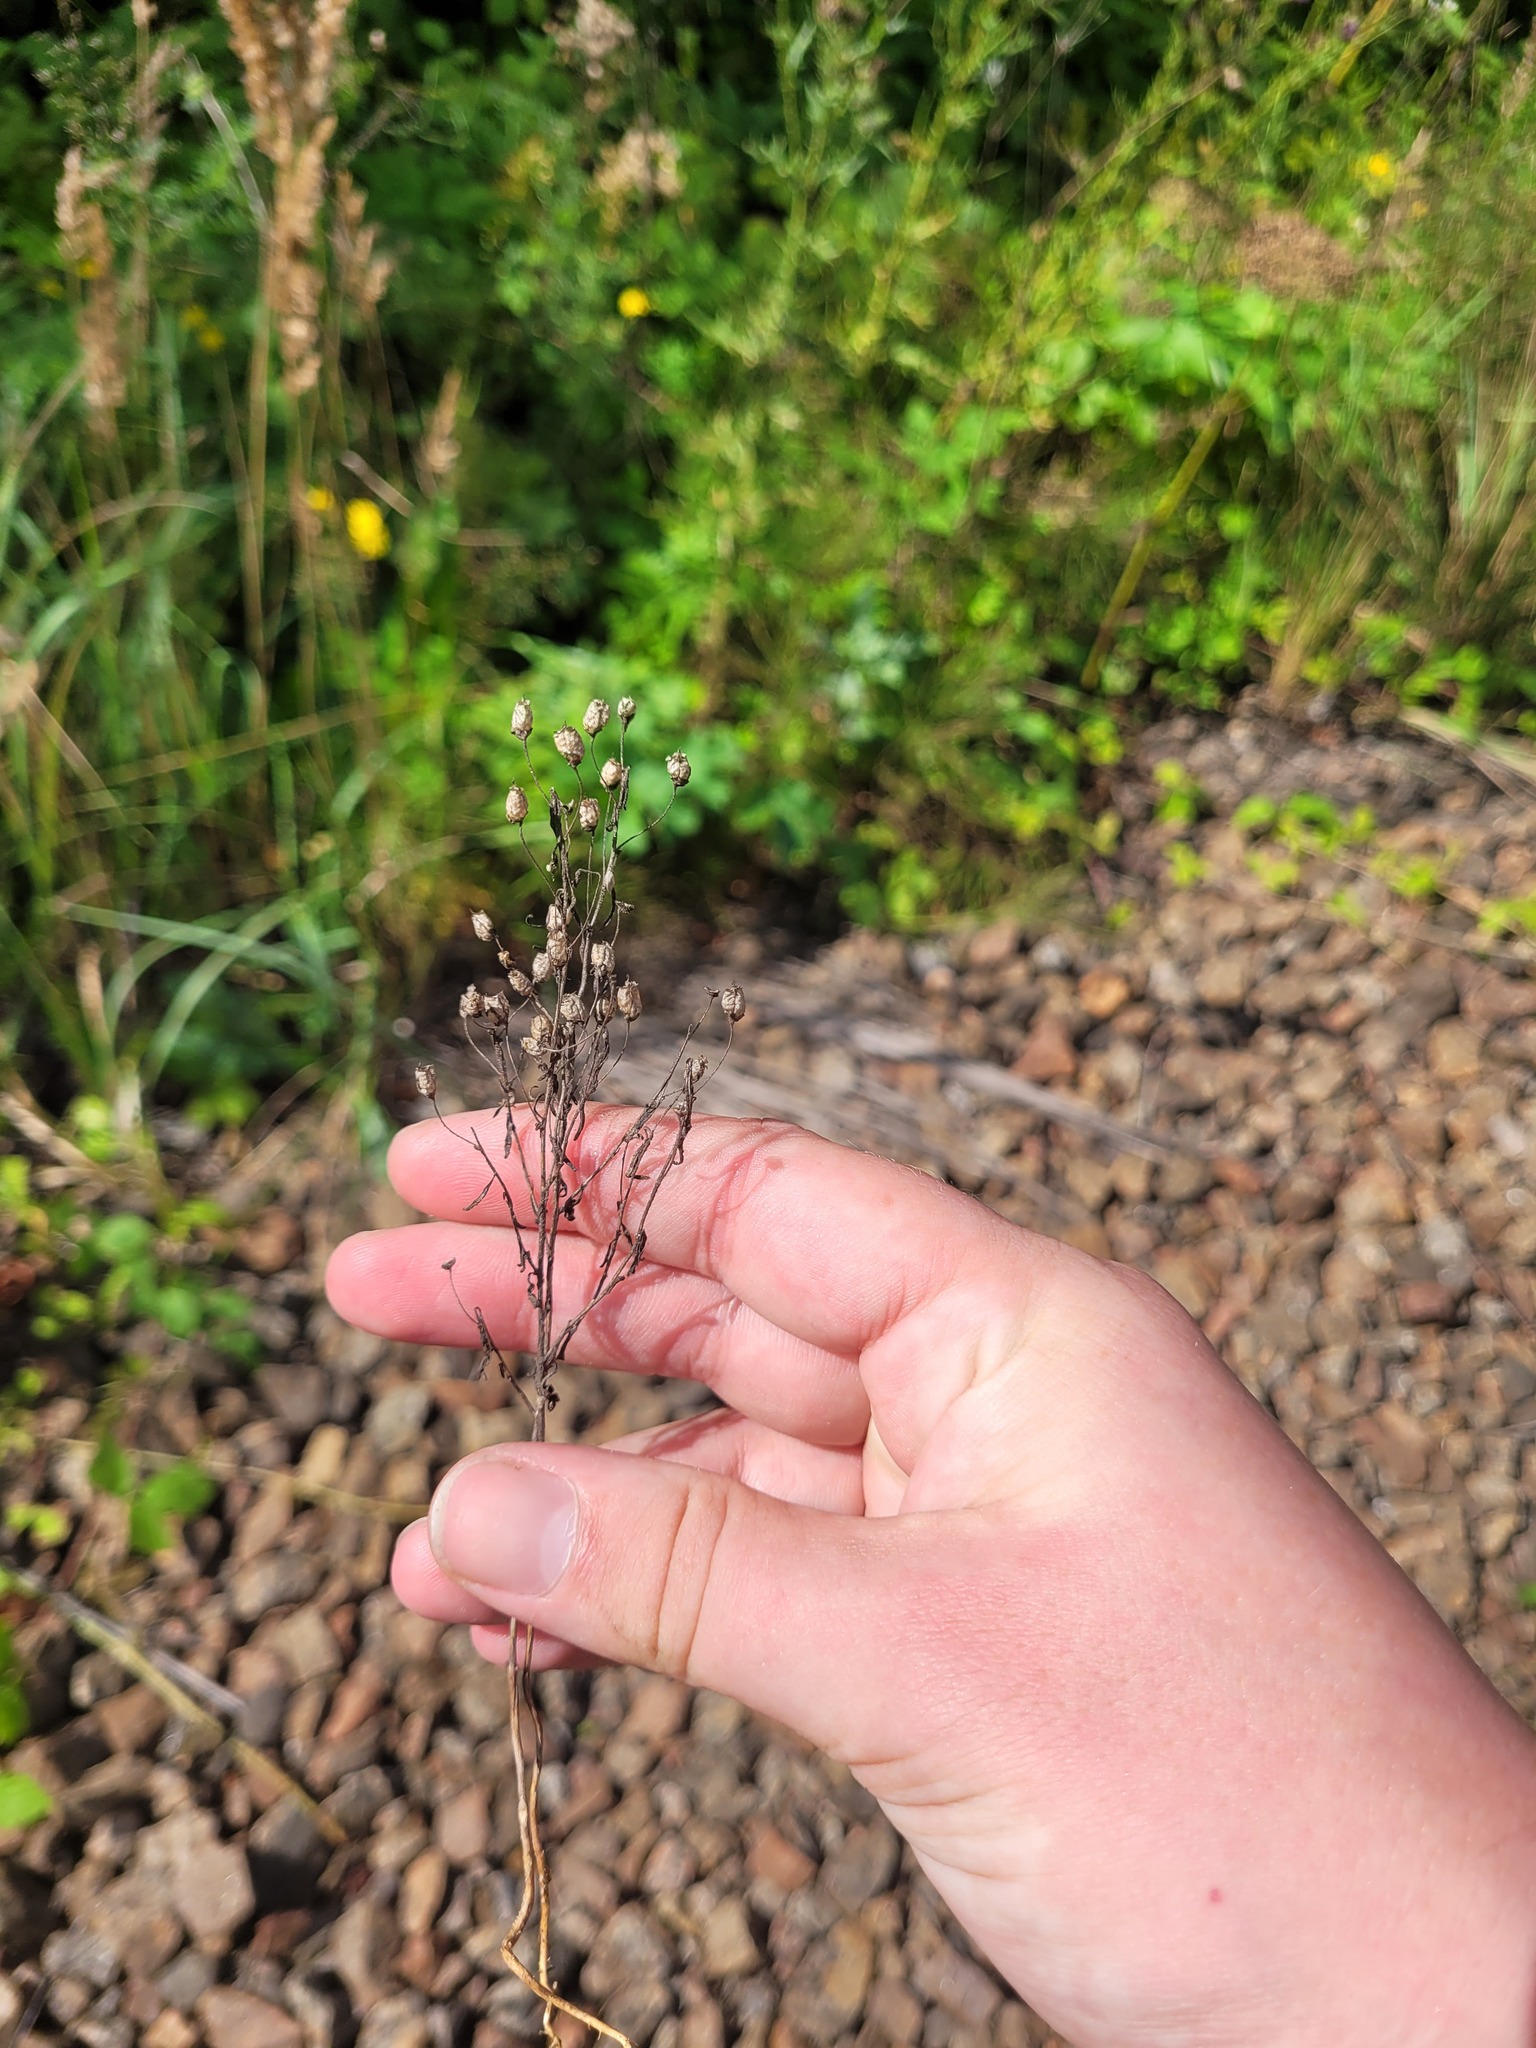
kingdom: Plantae
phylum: Tracheophyta
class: Magnoliopsida
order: Lamiales
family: Plantaginaceae
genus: Chaenorhinum
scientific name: Chaenorhinum minus
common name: Dwarf snapdragon
